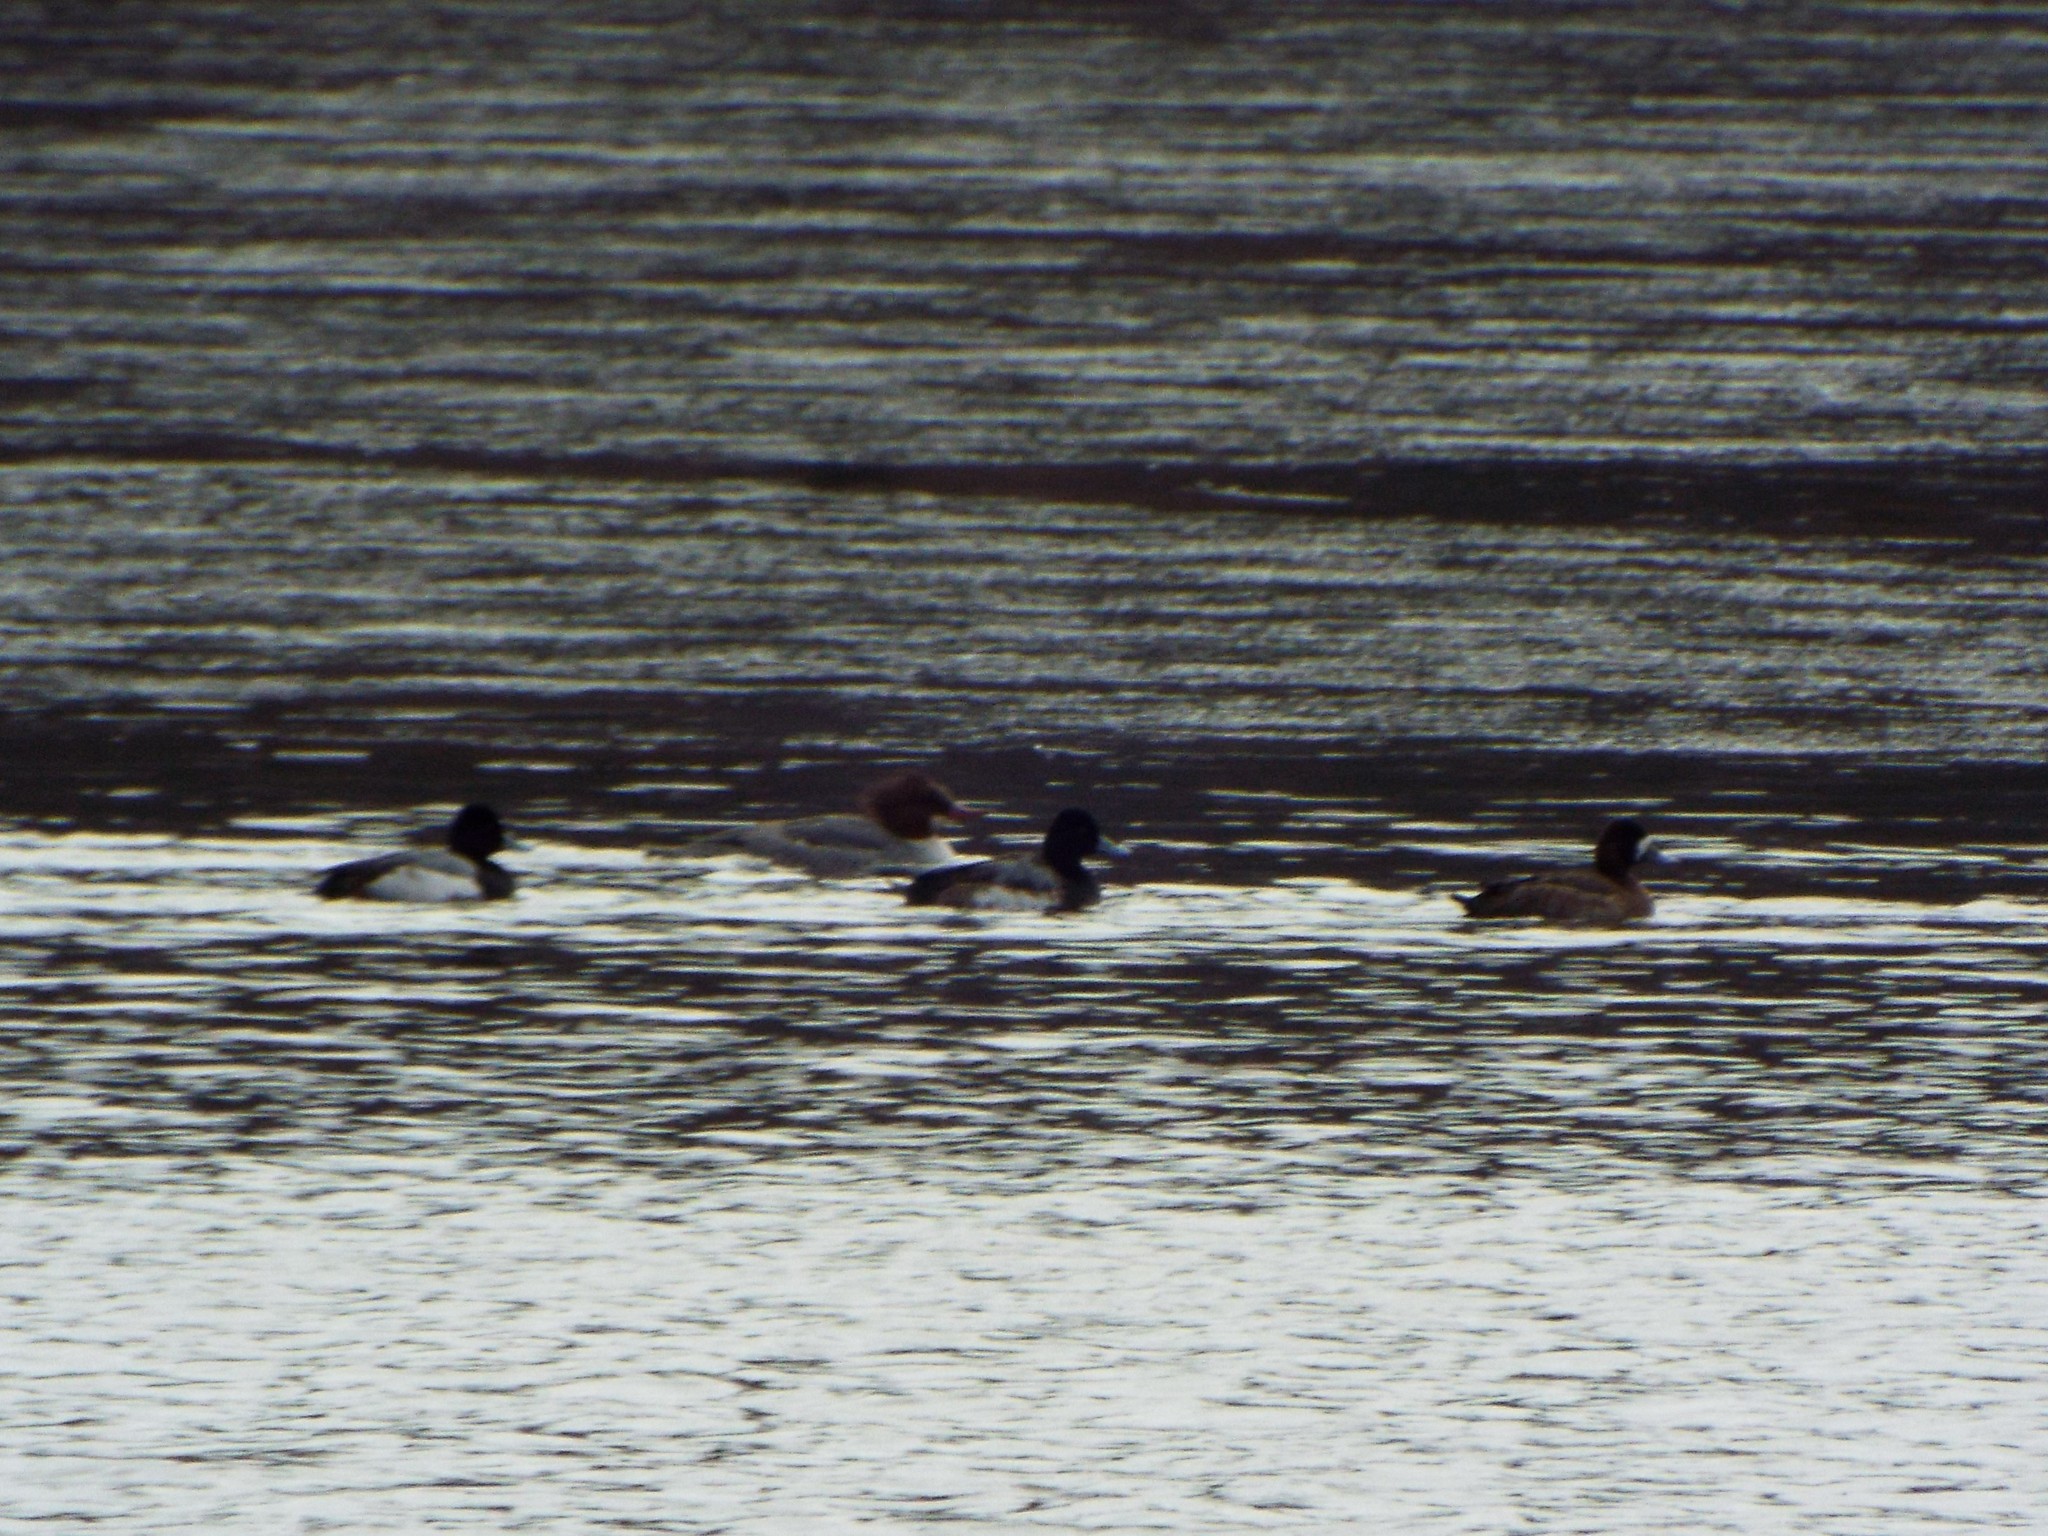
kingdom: Animalia
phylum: Chordata
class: Aves
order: Anseriformes
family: Anatidae
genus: Aythya
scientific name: Aythya affinis
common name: Lesser scaup
